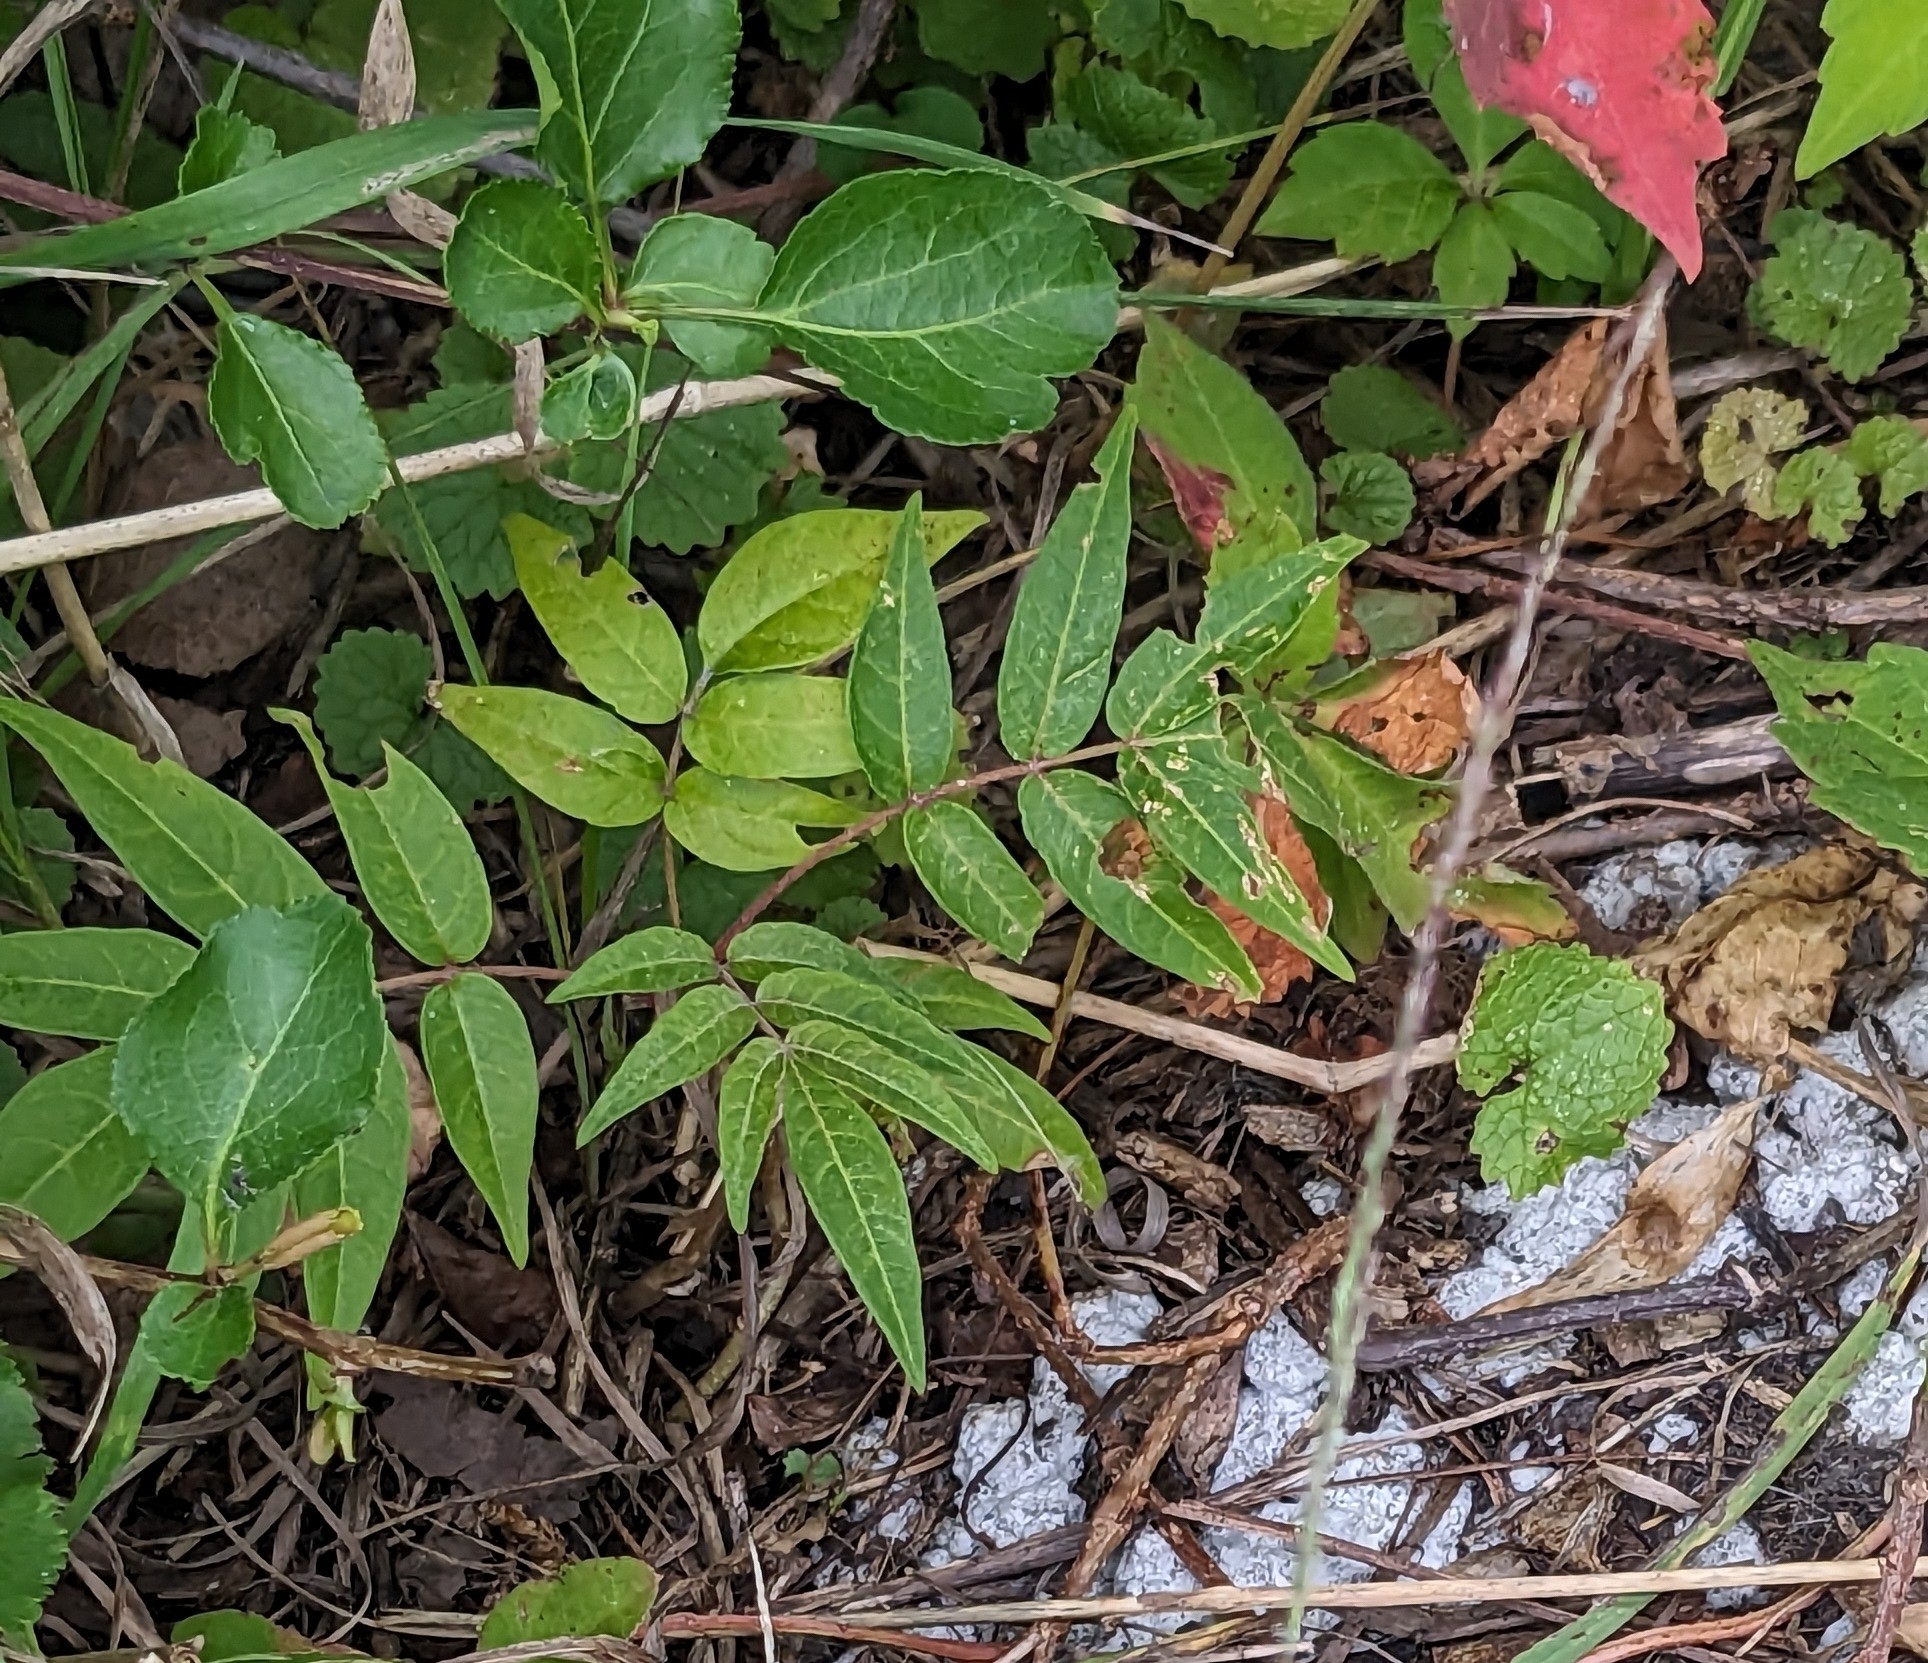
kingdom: Plantae
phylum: Tracheophyta
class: Magnoliopsida
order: Sapindales
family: Simaroubaceae
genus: Ailanthus
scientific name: Ailanthus altissima
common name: Tree-of-heaven
